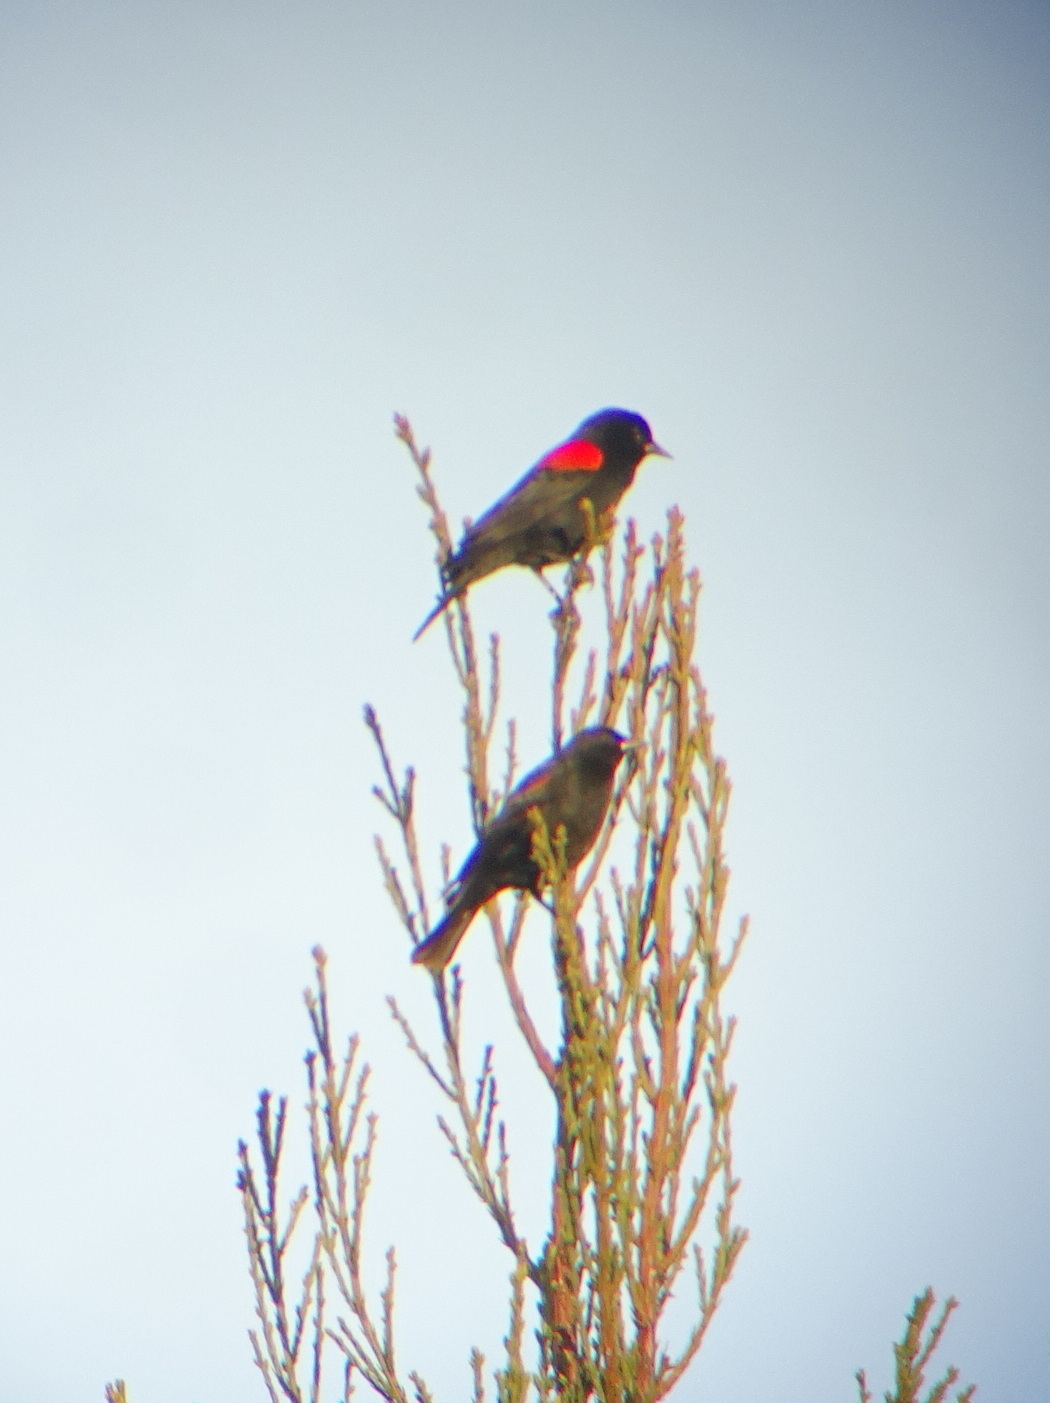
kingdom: Animalia
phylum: Chordata
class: Aves
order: Passeriformes
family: Icteridae
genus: Agelaius
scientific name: Agelaius phoeniceus
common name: Red-winged blackbird
